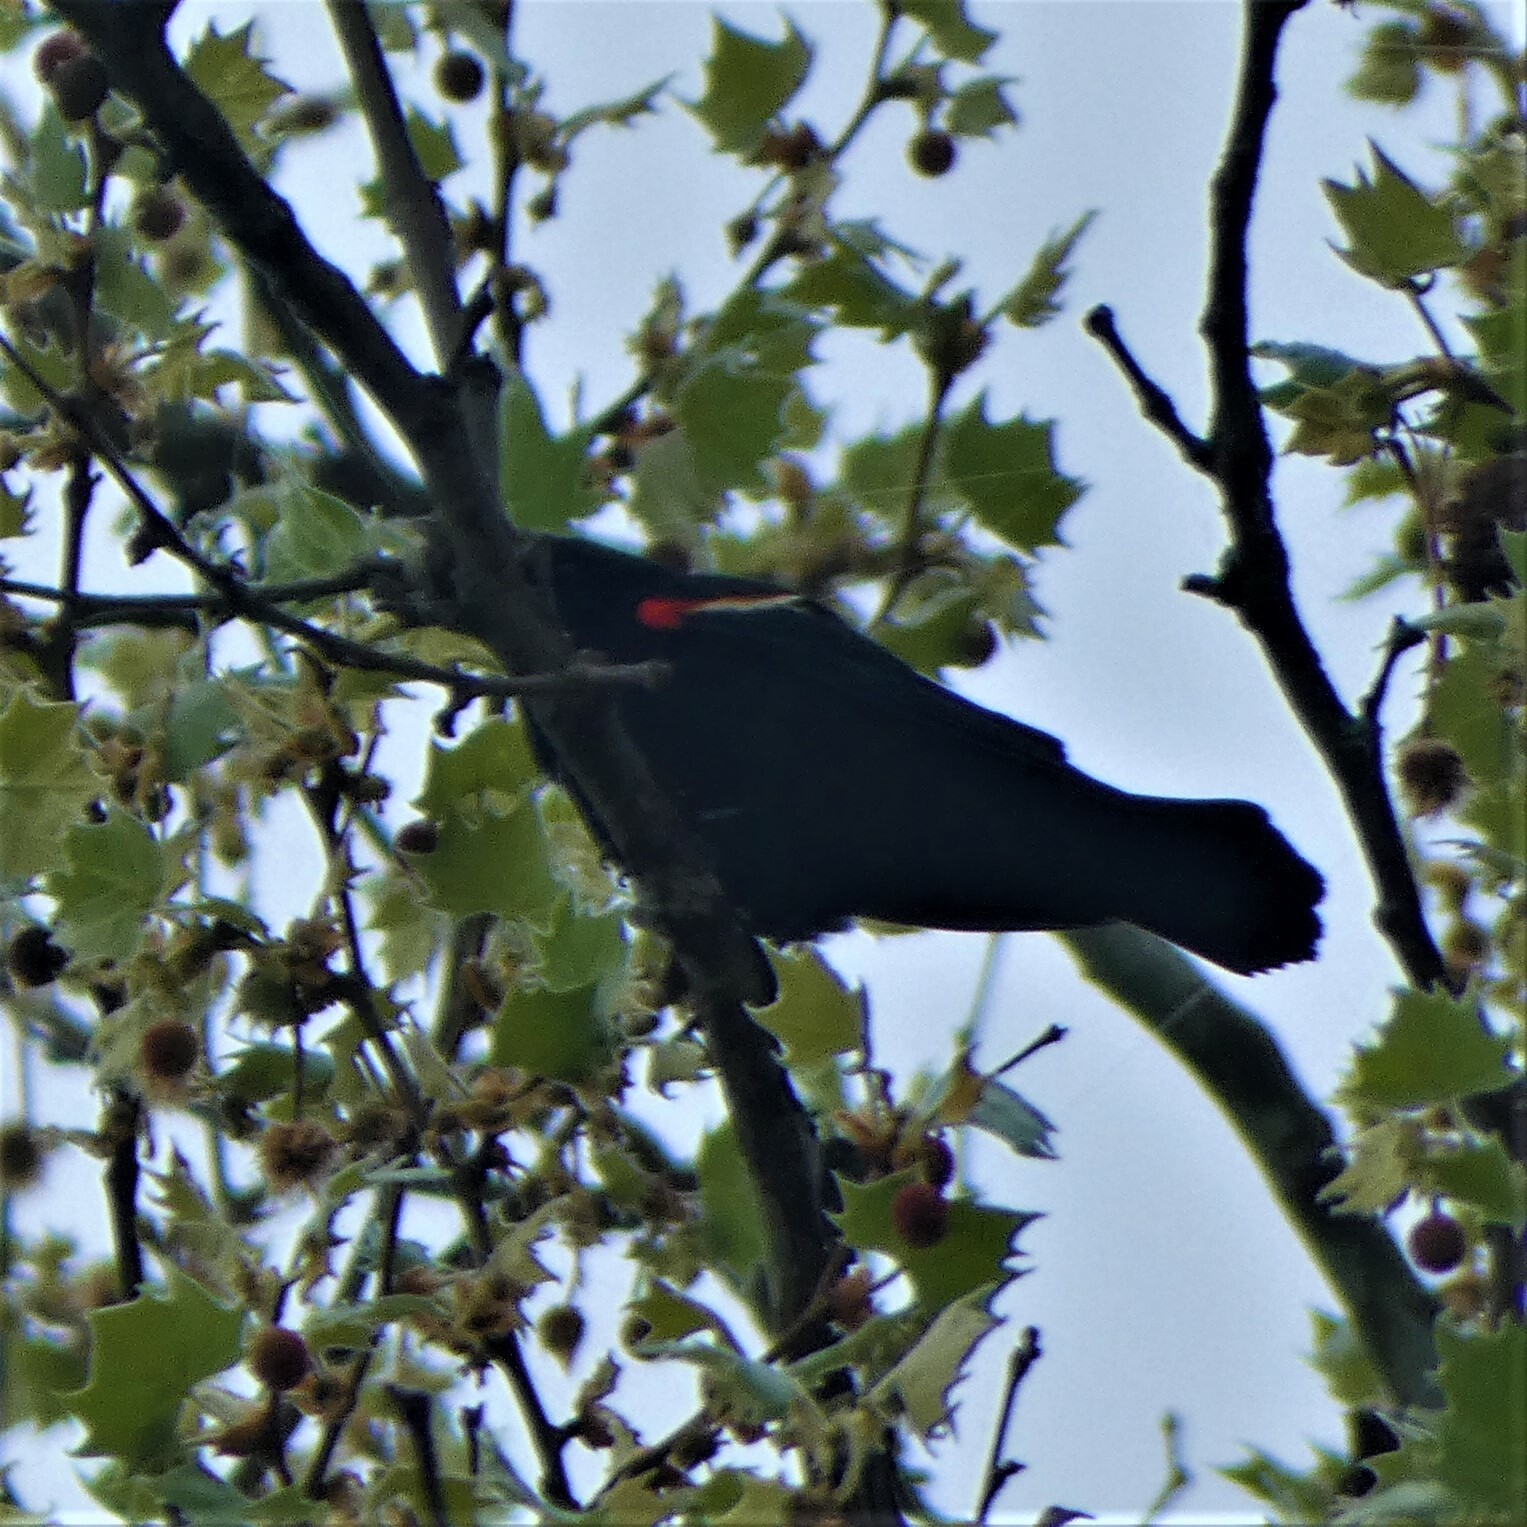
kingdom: Animalia
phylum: Chordata
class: Aves
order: Passeriformes
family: Icteridae
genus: Agelaius
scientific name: Agelaius phoeniceus
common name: Red-winged blackbird
